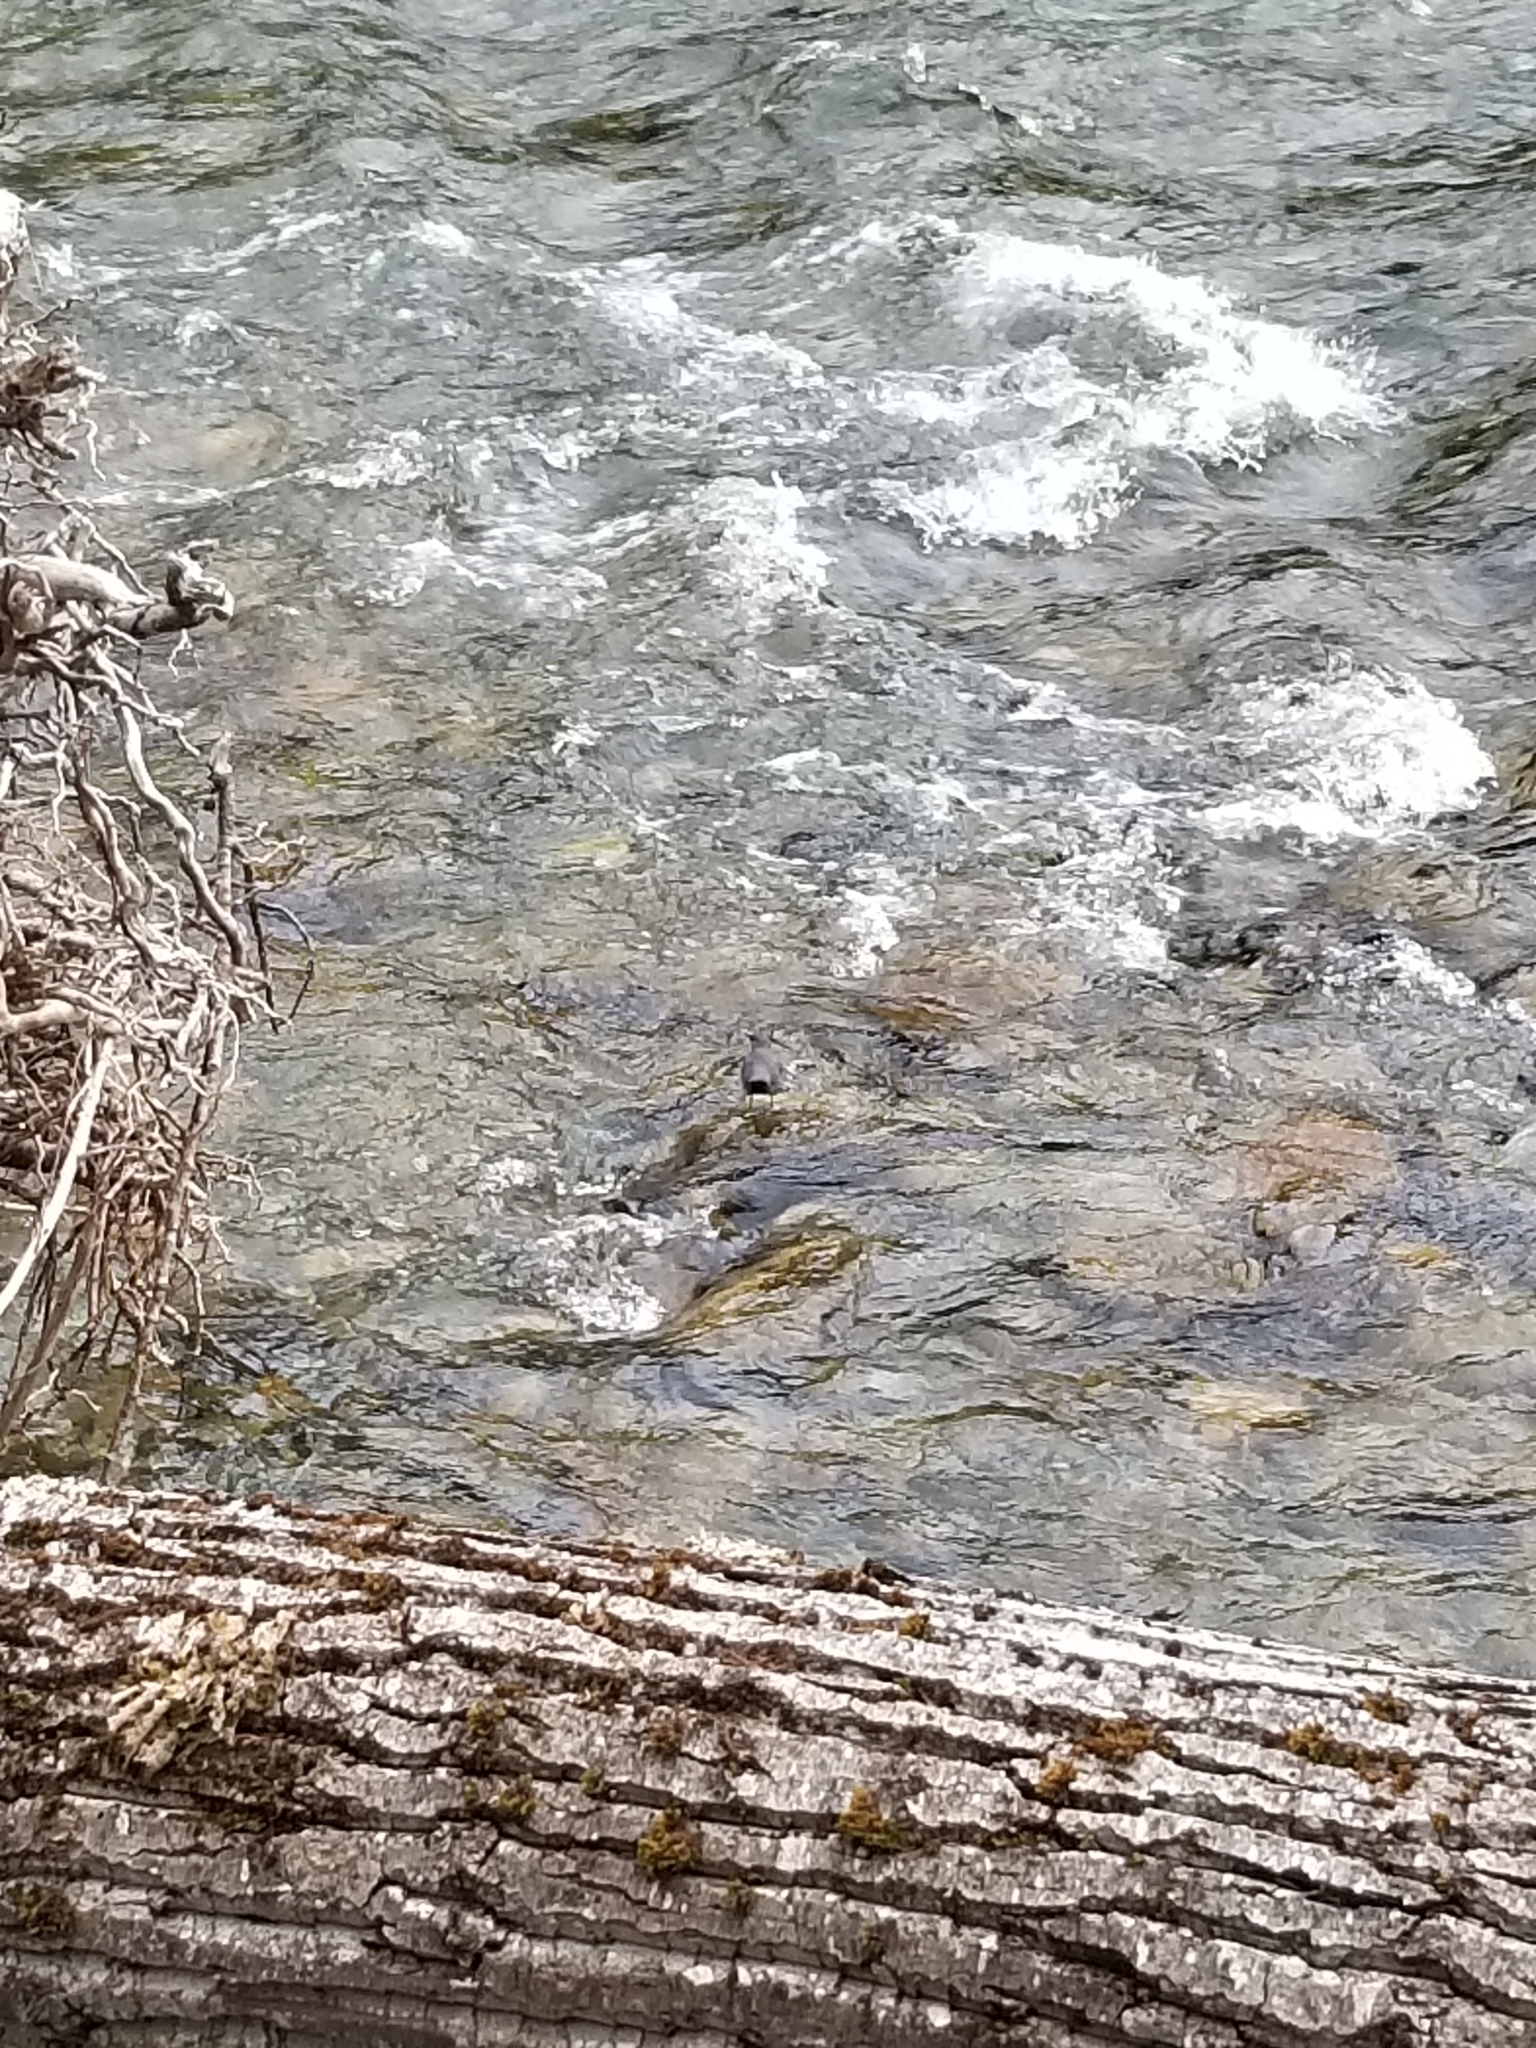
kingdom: Animalia
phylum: Chordata
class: Aves
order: Passeriformes
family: Cinclidae
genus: Cinclus
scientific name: Cinclus mexicanus
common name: American dipper
